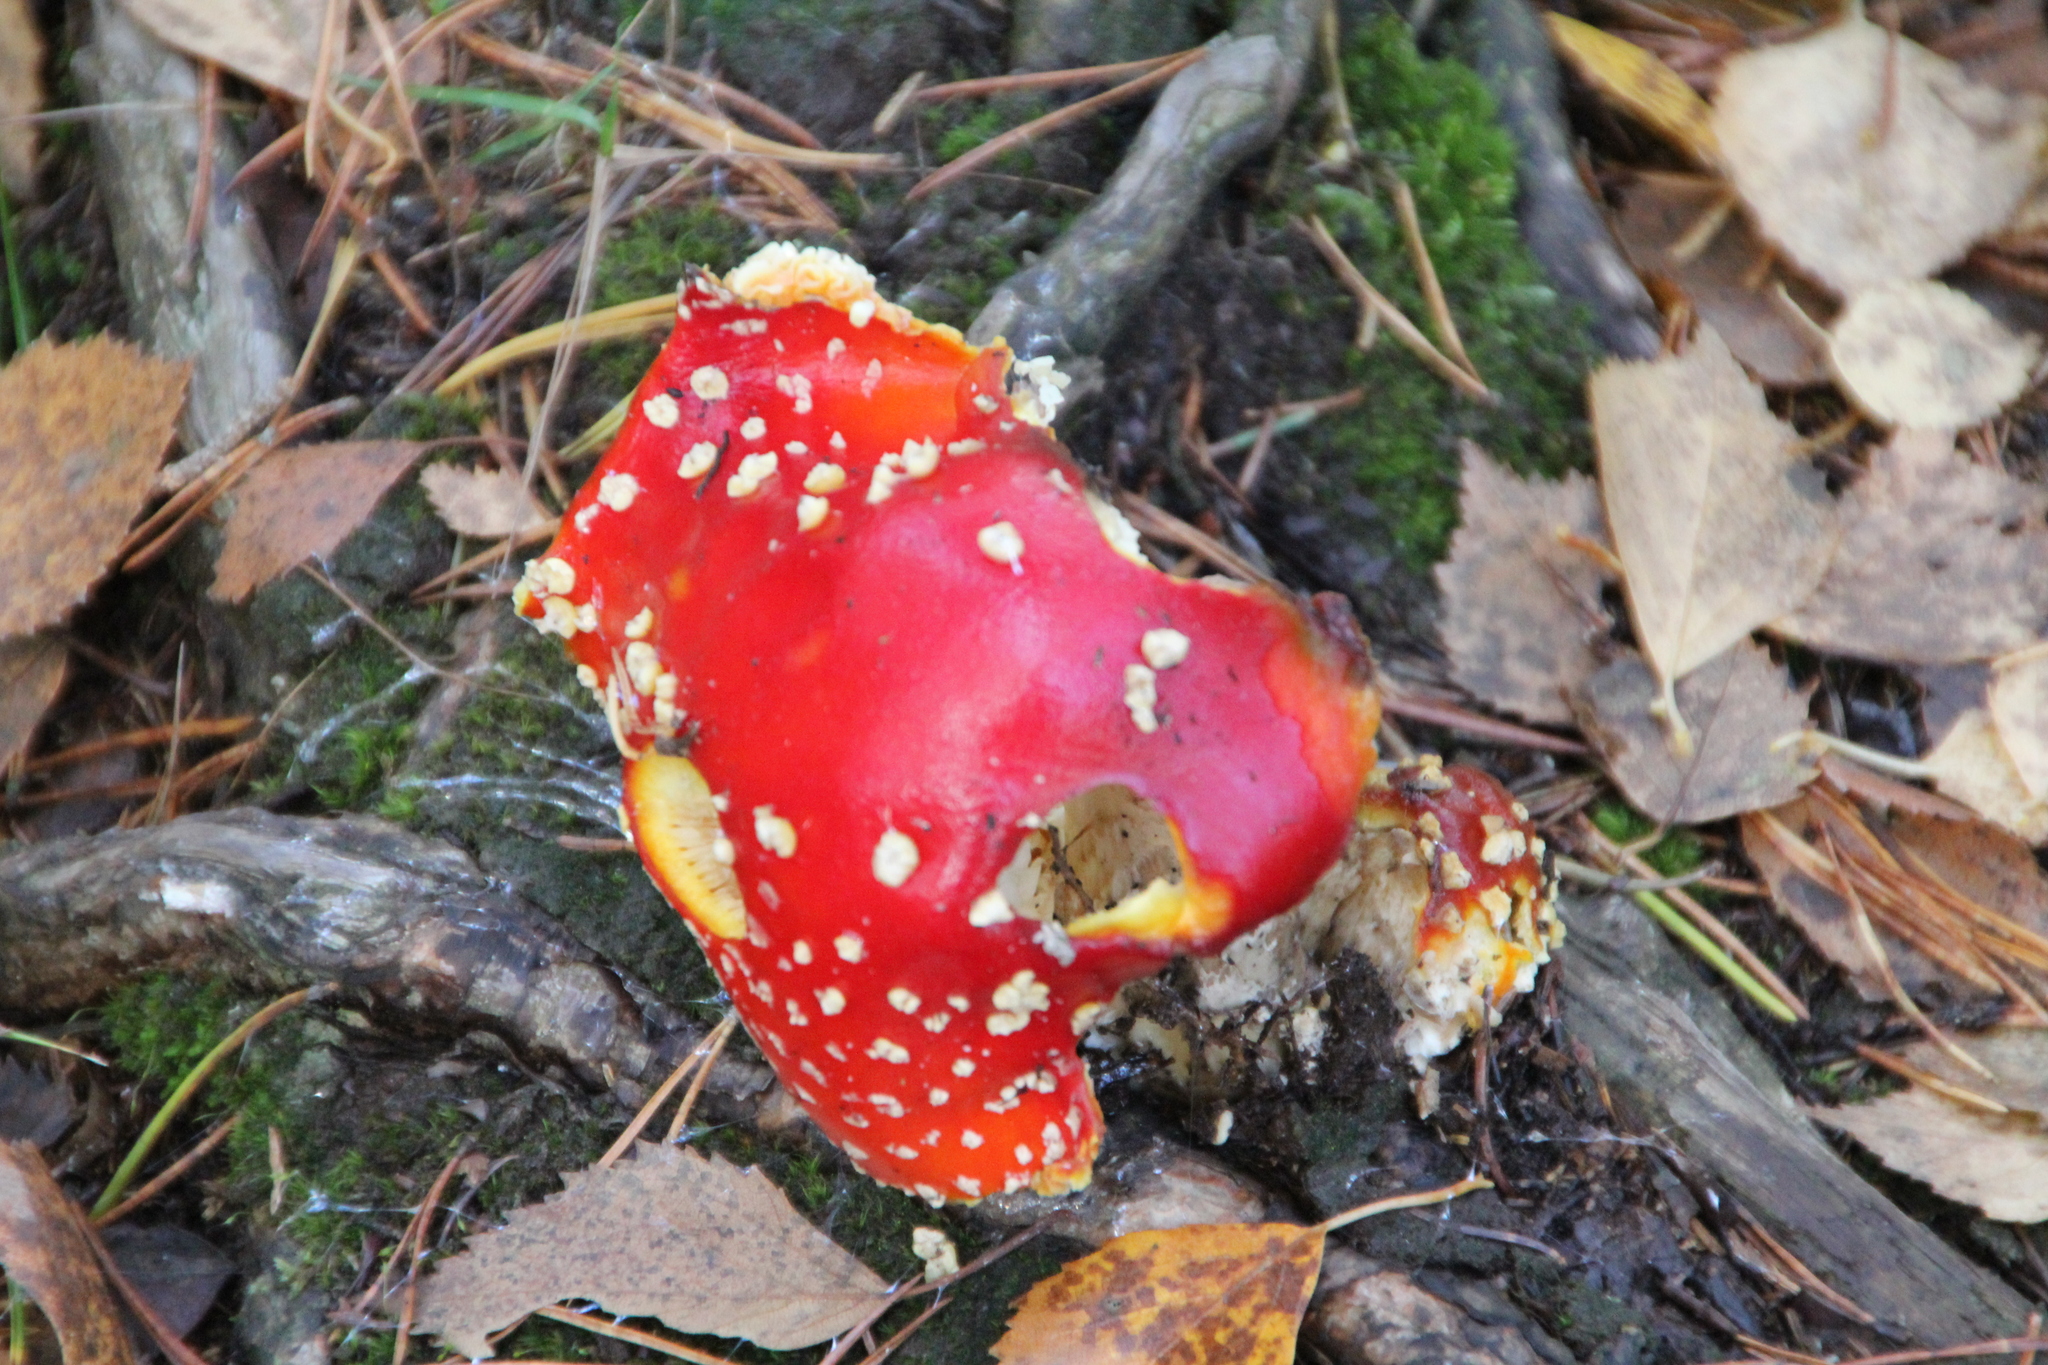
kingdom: Fungi
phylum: Basidiomycota
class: Agaricomycetes
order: Agaricales
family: Amanitaceae
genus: Amanita
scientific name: Amanita muscaria
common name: Fly agaric
